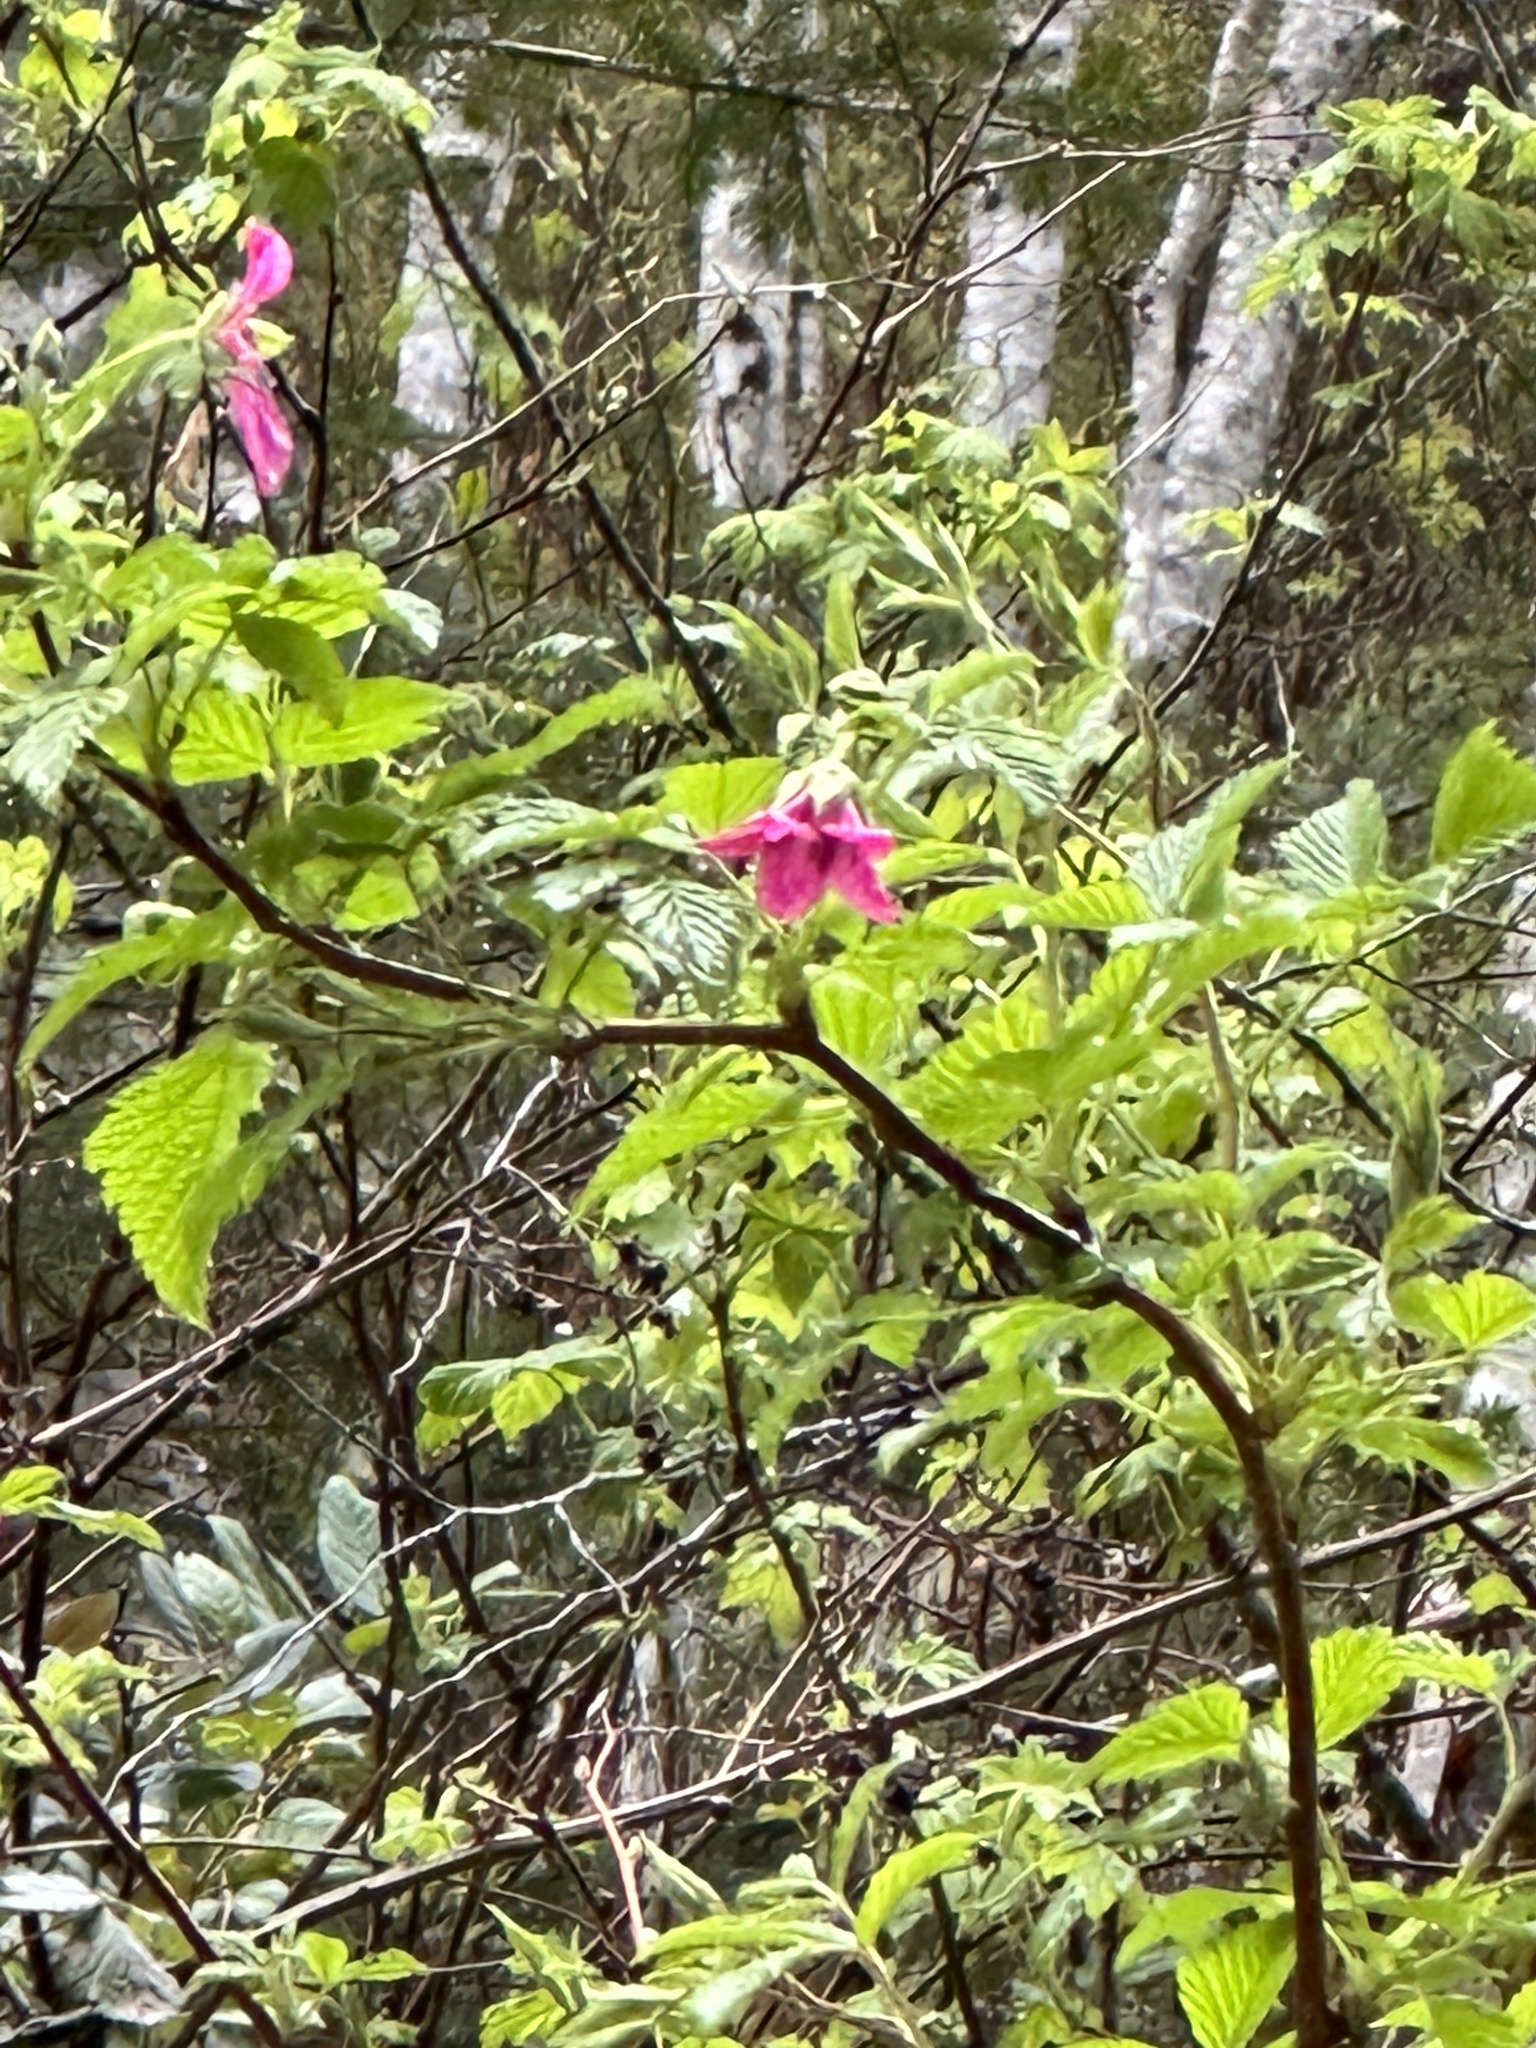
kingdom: Plantae
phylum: Tracheophyta
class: Magnoliopsida
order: Rosales
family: Rosaceae
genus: Rubus
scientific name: Rubus spectabilis
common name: Salmonberry
